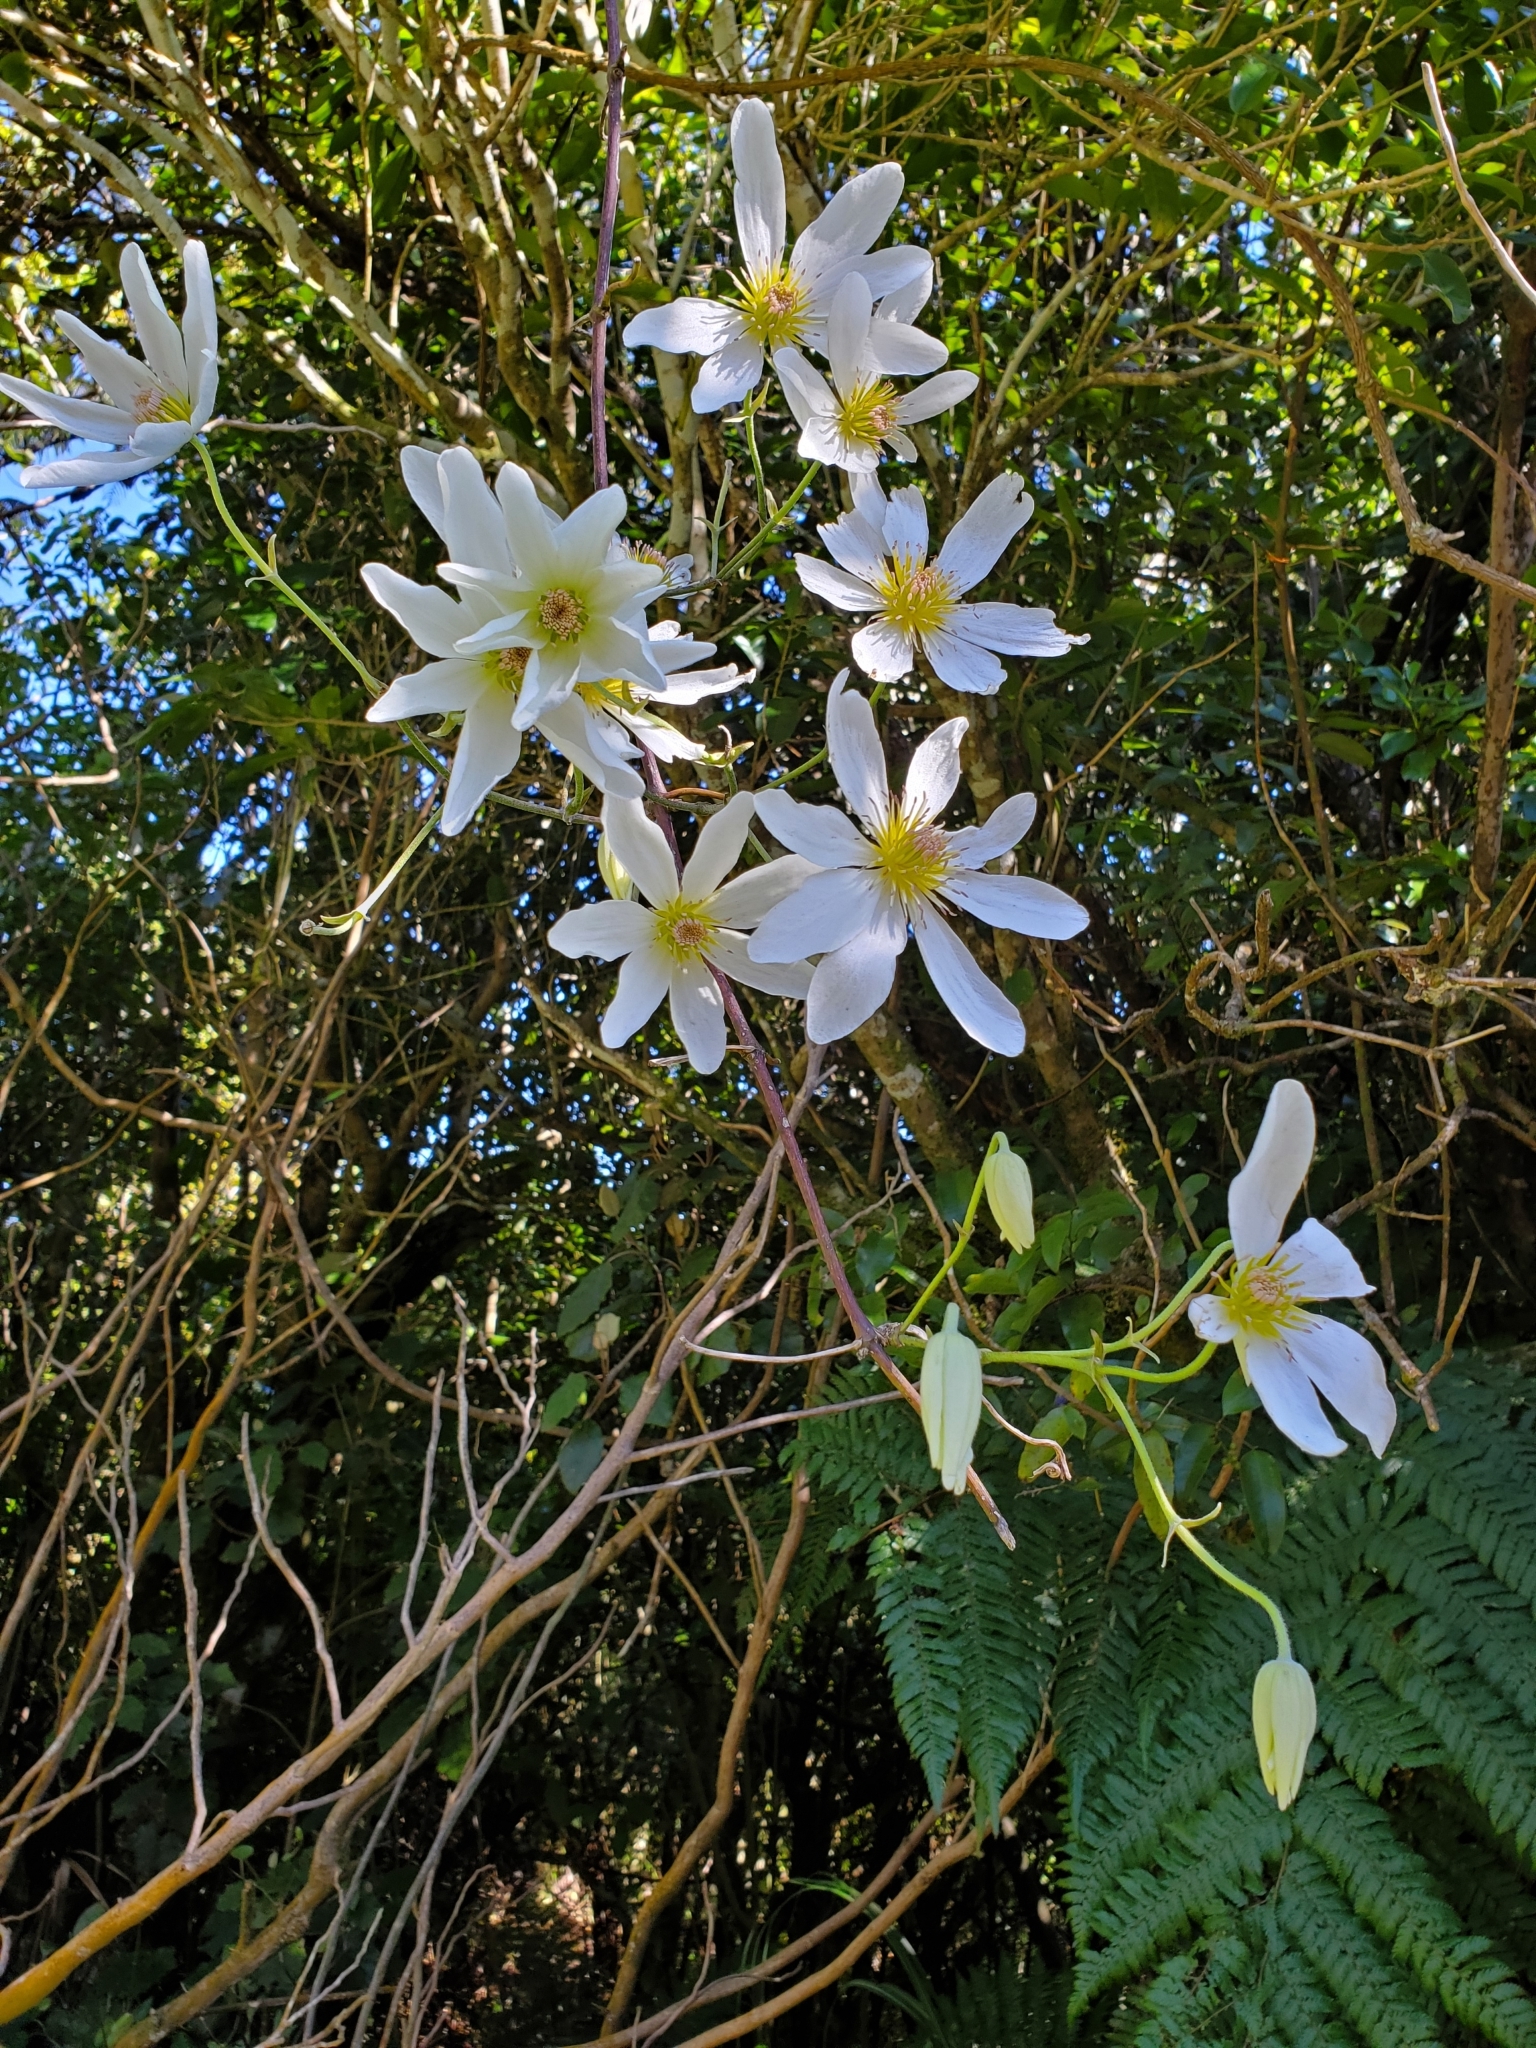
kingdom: Plantae
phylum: Tracheophyta
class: Magnoliopsida
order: Ranunculales
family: Ranunculaceae
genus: Clematis
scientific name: Clematis paniculata
